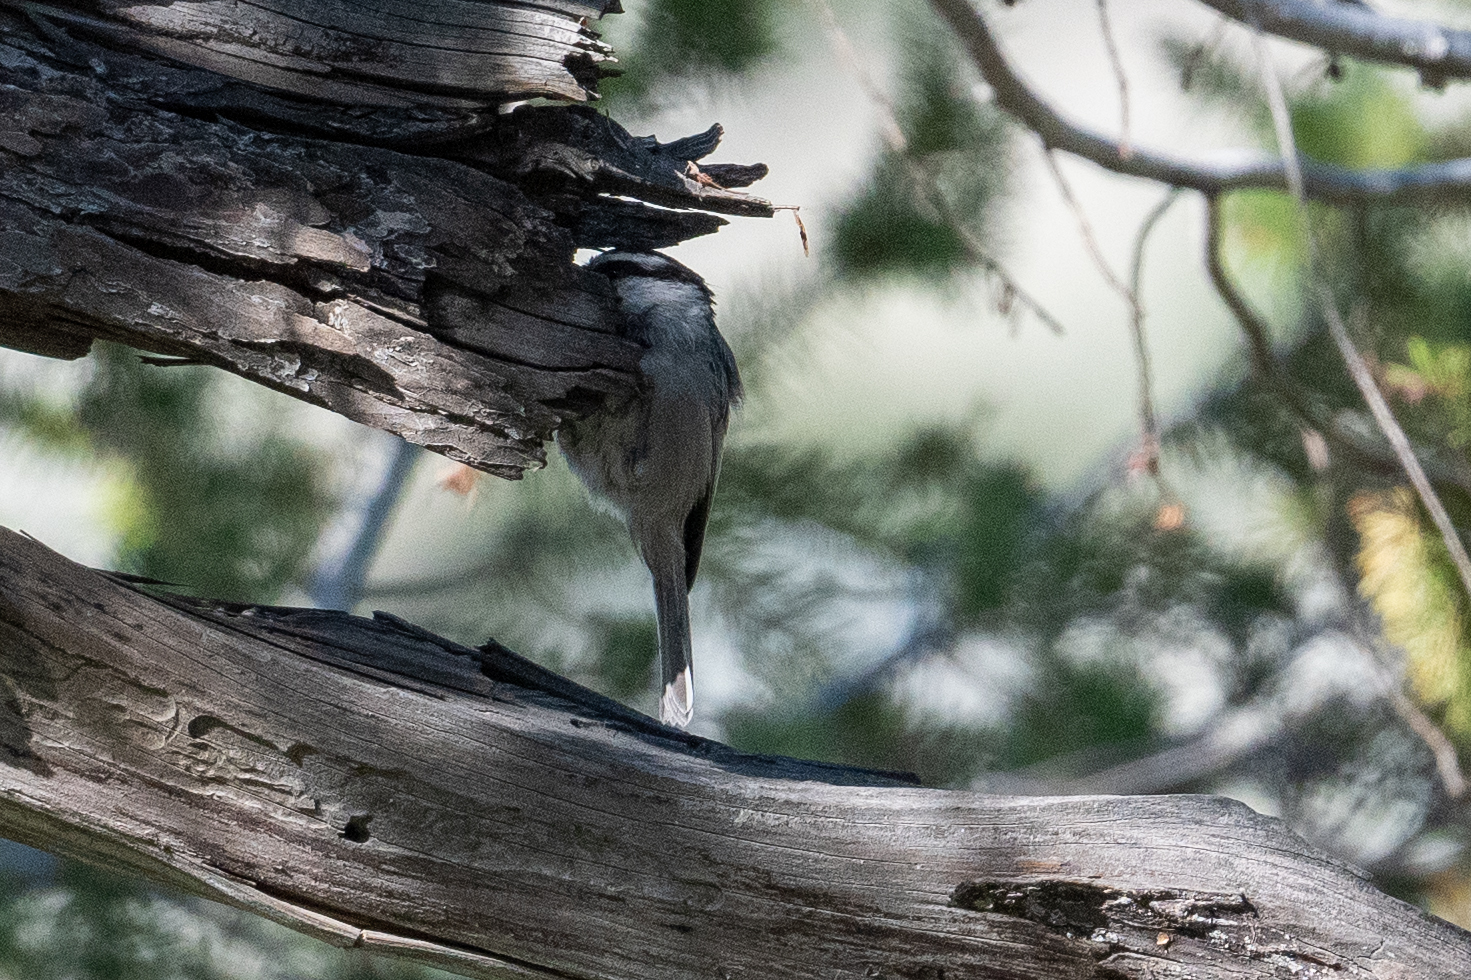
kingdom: Animalia
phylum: Chordata
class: Aves
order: Passeriformes
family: Paridae
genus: Poecile
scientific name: Poecile gambeli
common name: Mountain chickadee
